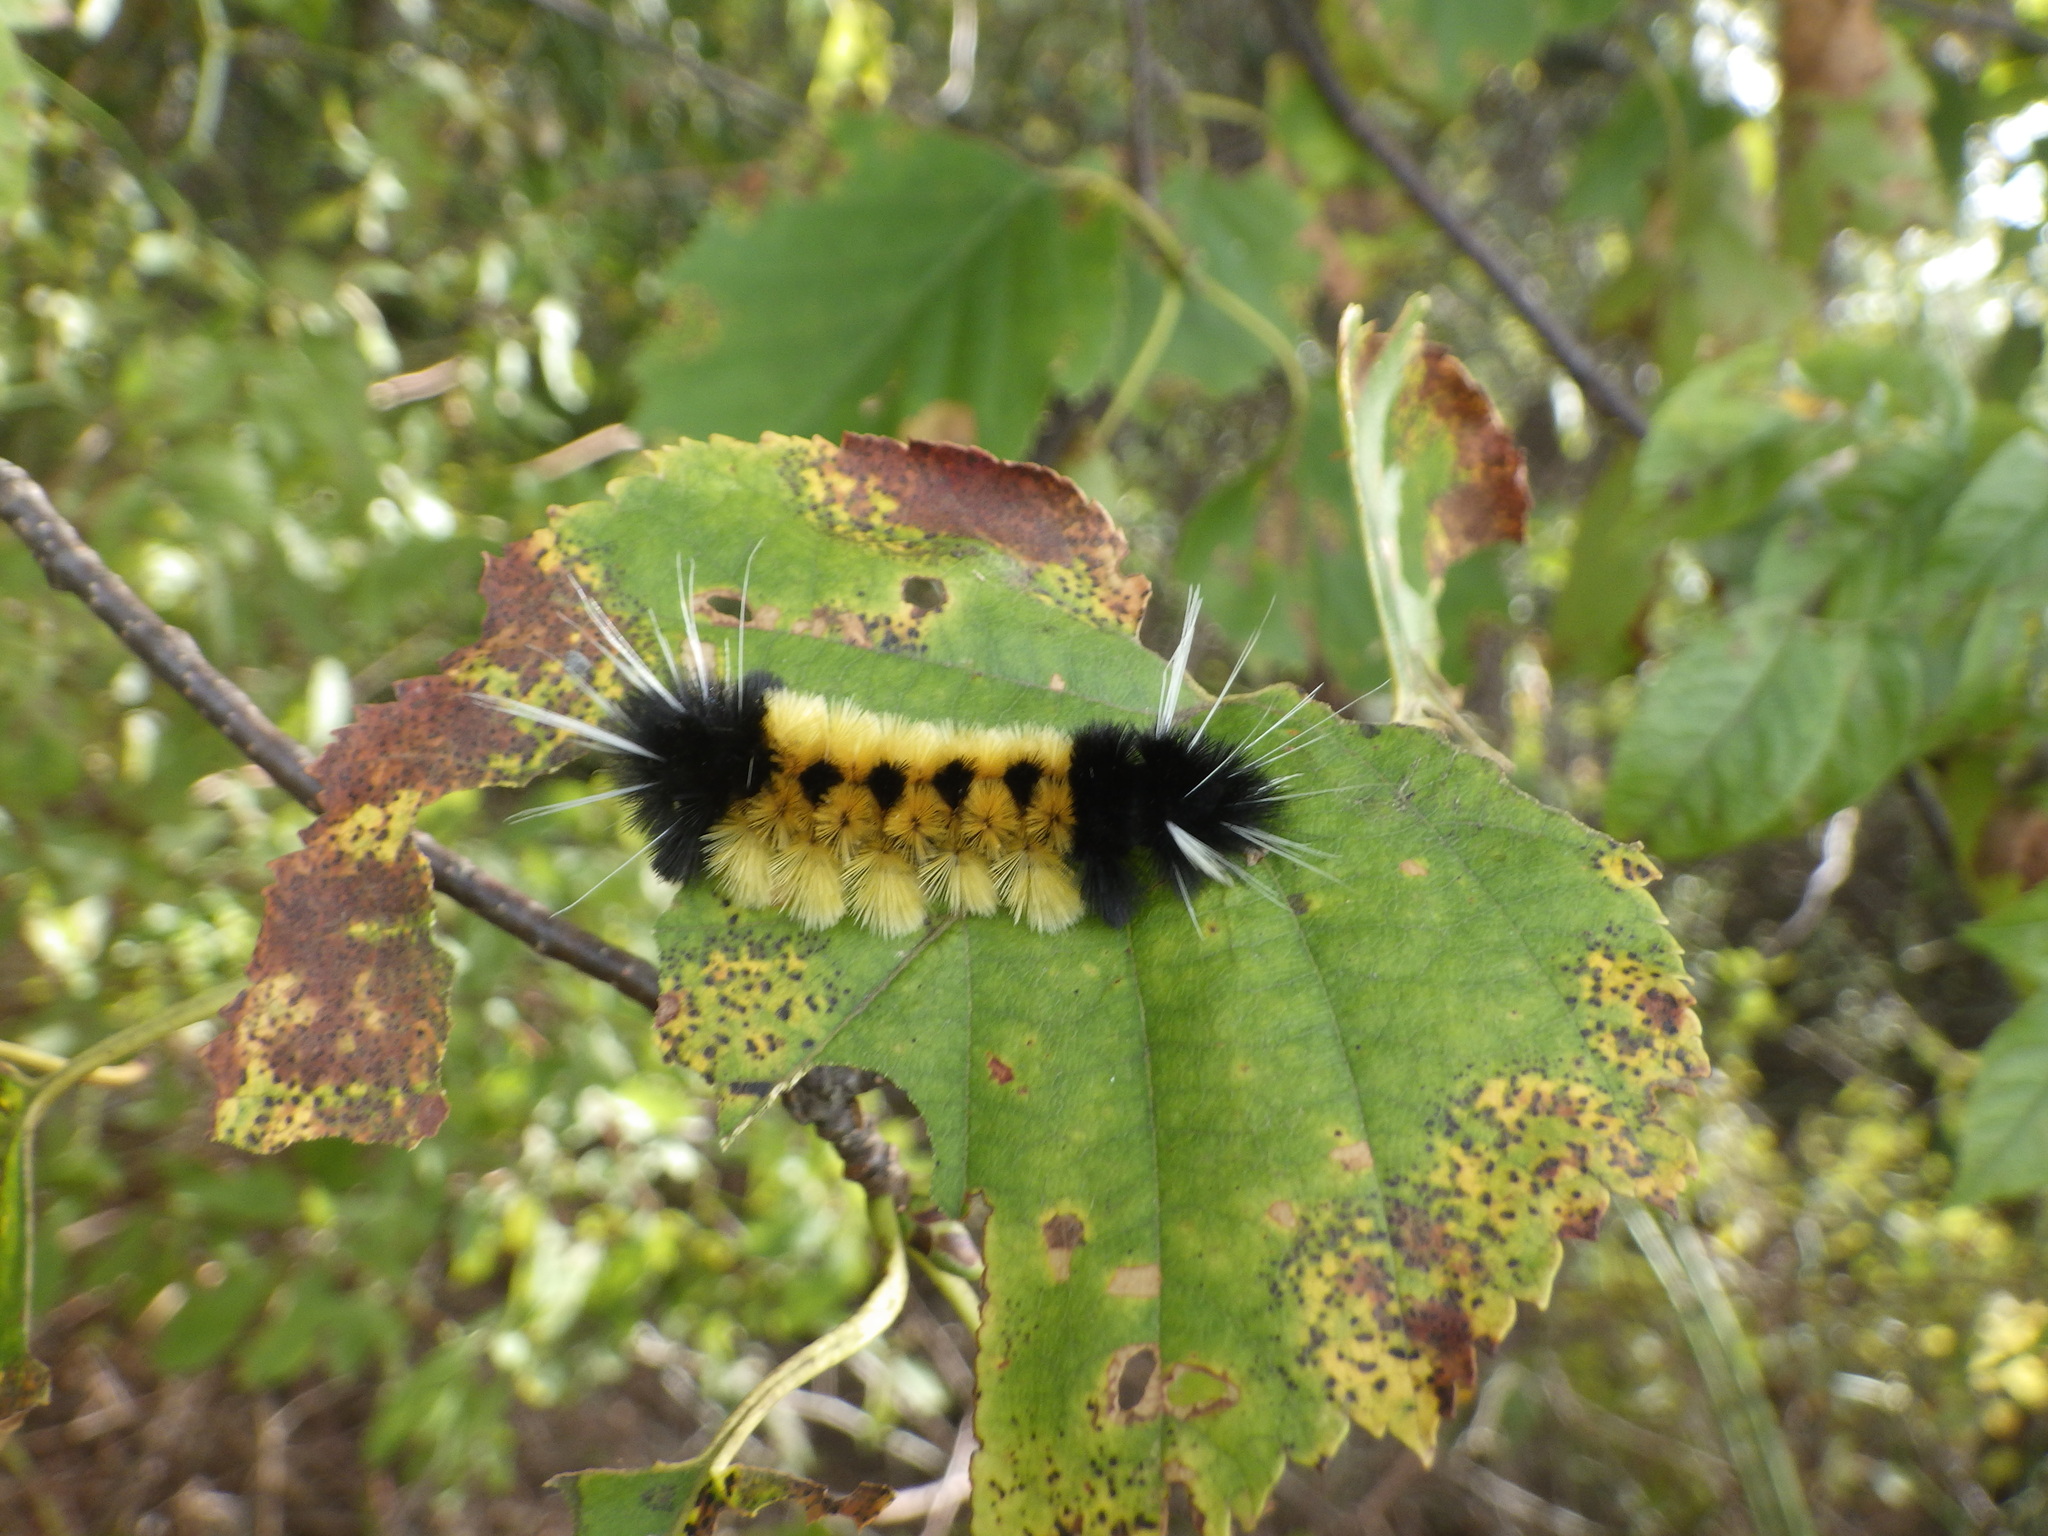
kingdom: Animalia
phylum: Arthropoda
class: Insecta
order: Lepidoptera
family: Erebidae
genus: Lophocampa
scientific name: Lophocampa maculata
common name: Spotted tussock moth
